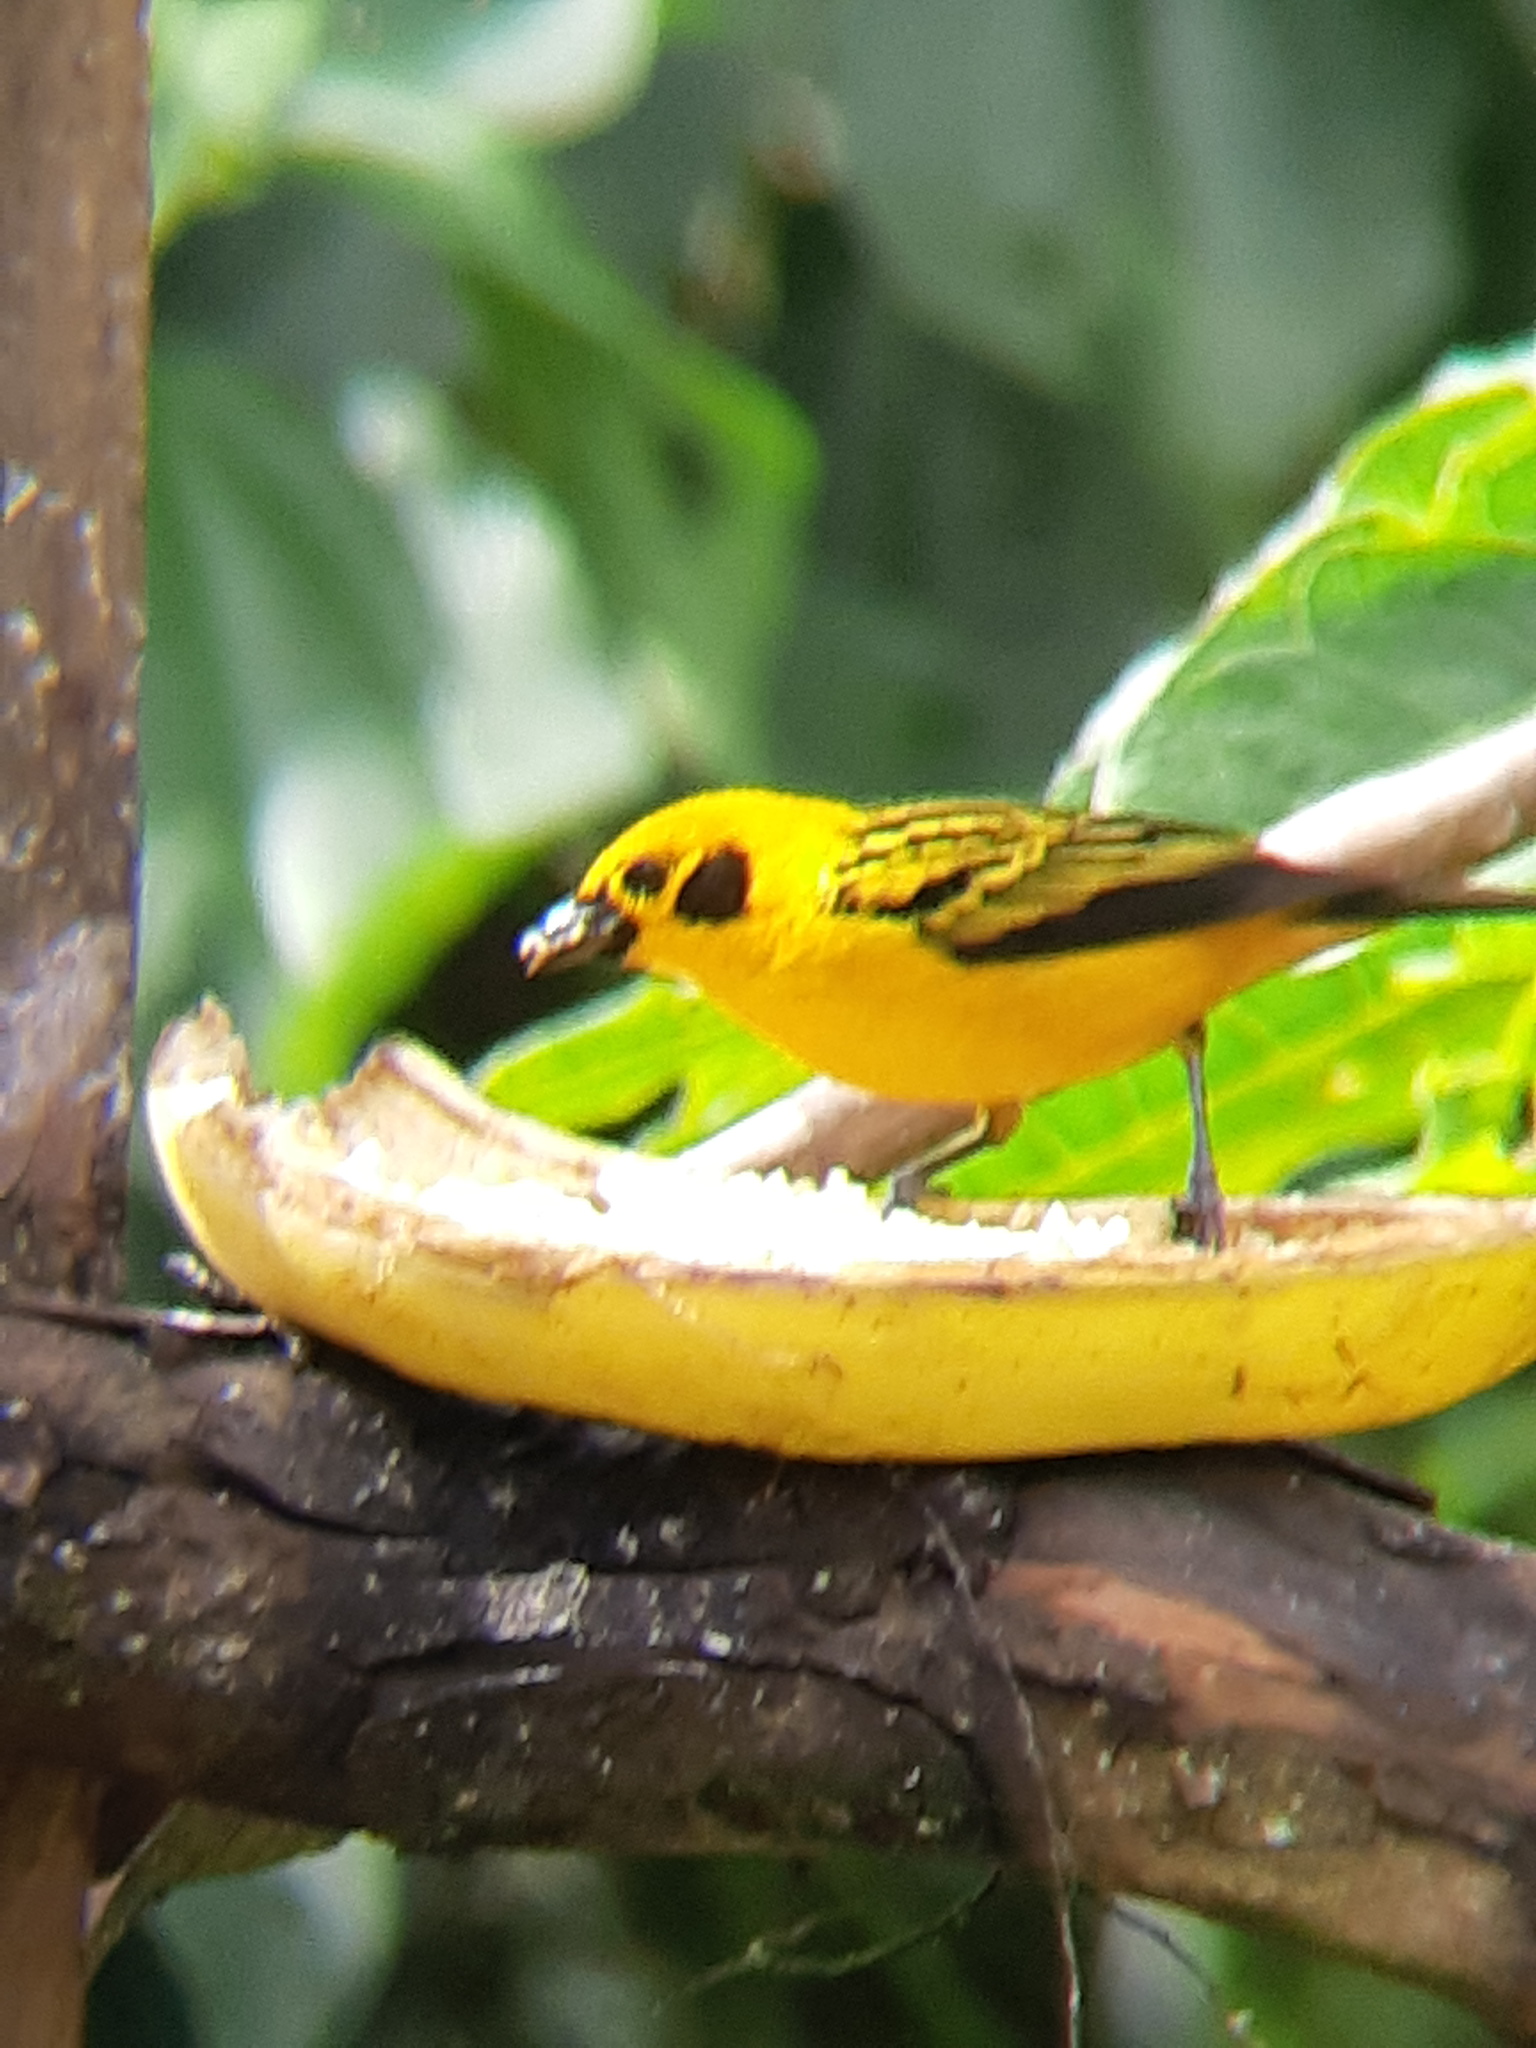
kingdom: Animalia
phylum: Chordata
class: Aves
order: Passeriformes
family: Thraupidae
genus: Tangara
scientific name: Tangara arthus
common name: Golden tanager
